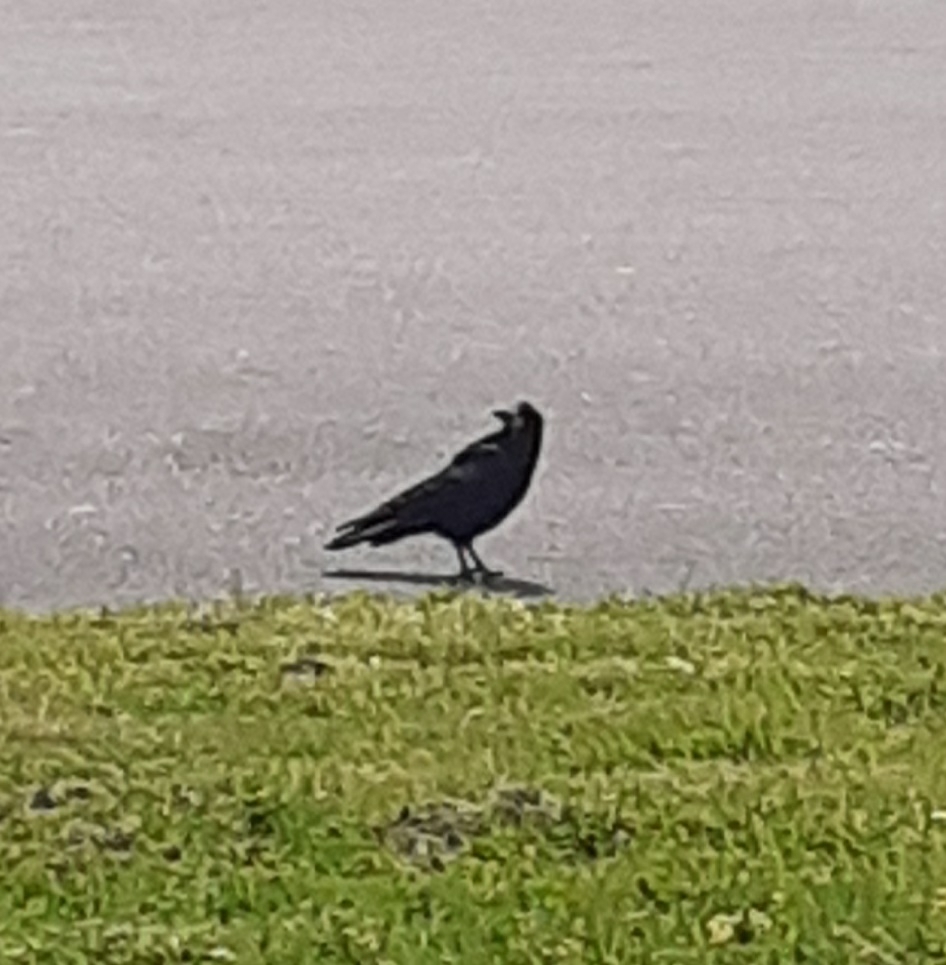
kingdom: Animalia
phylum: Chordata
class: Aves
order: Passeriformes
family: Corvidae
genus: Corvus
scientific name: Corvus frugilegus
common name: Rook
